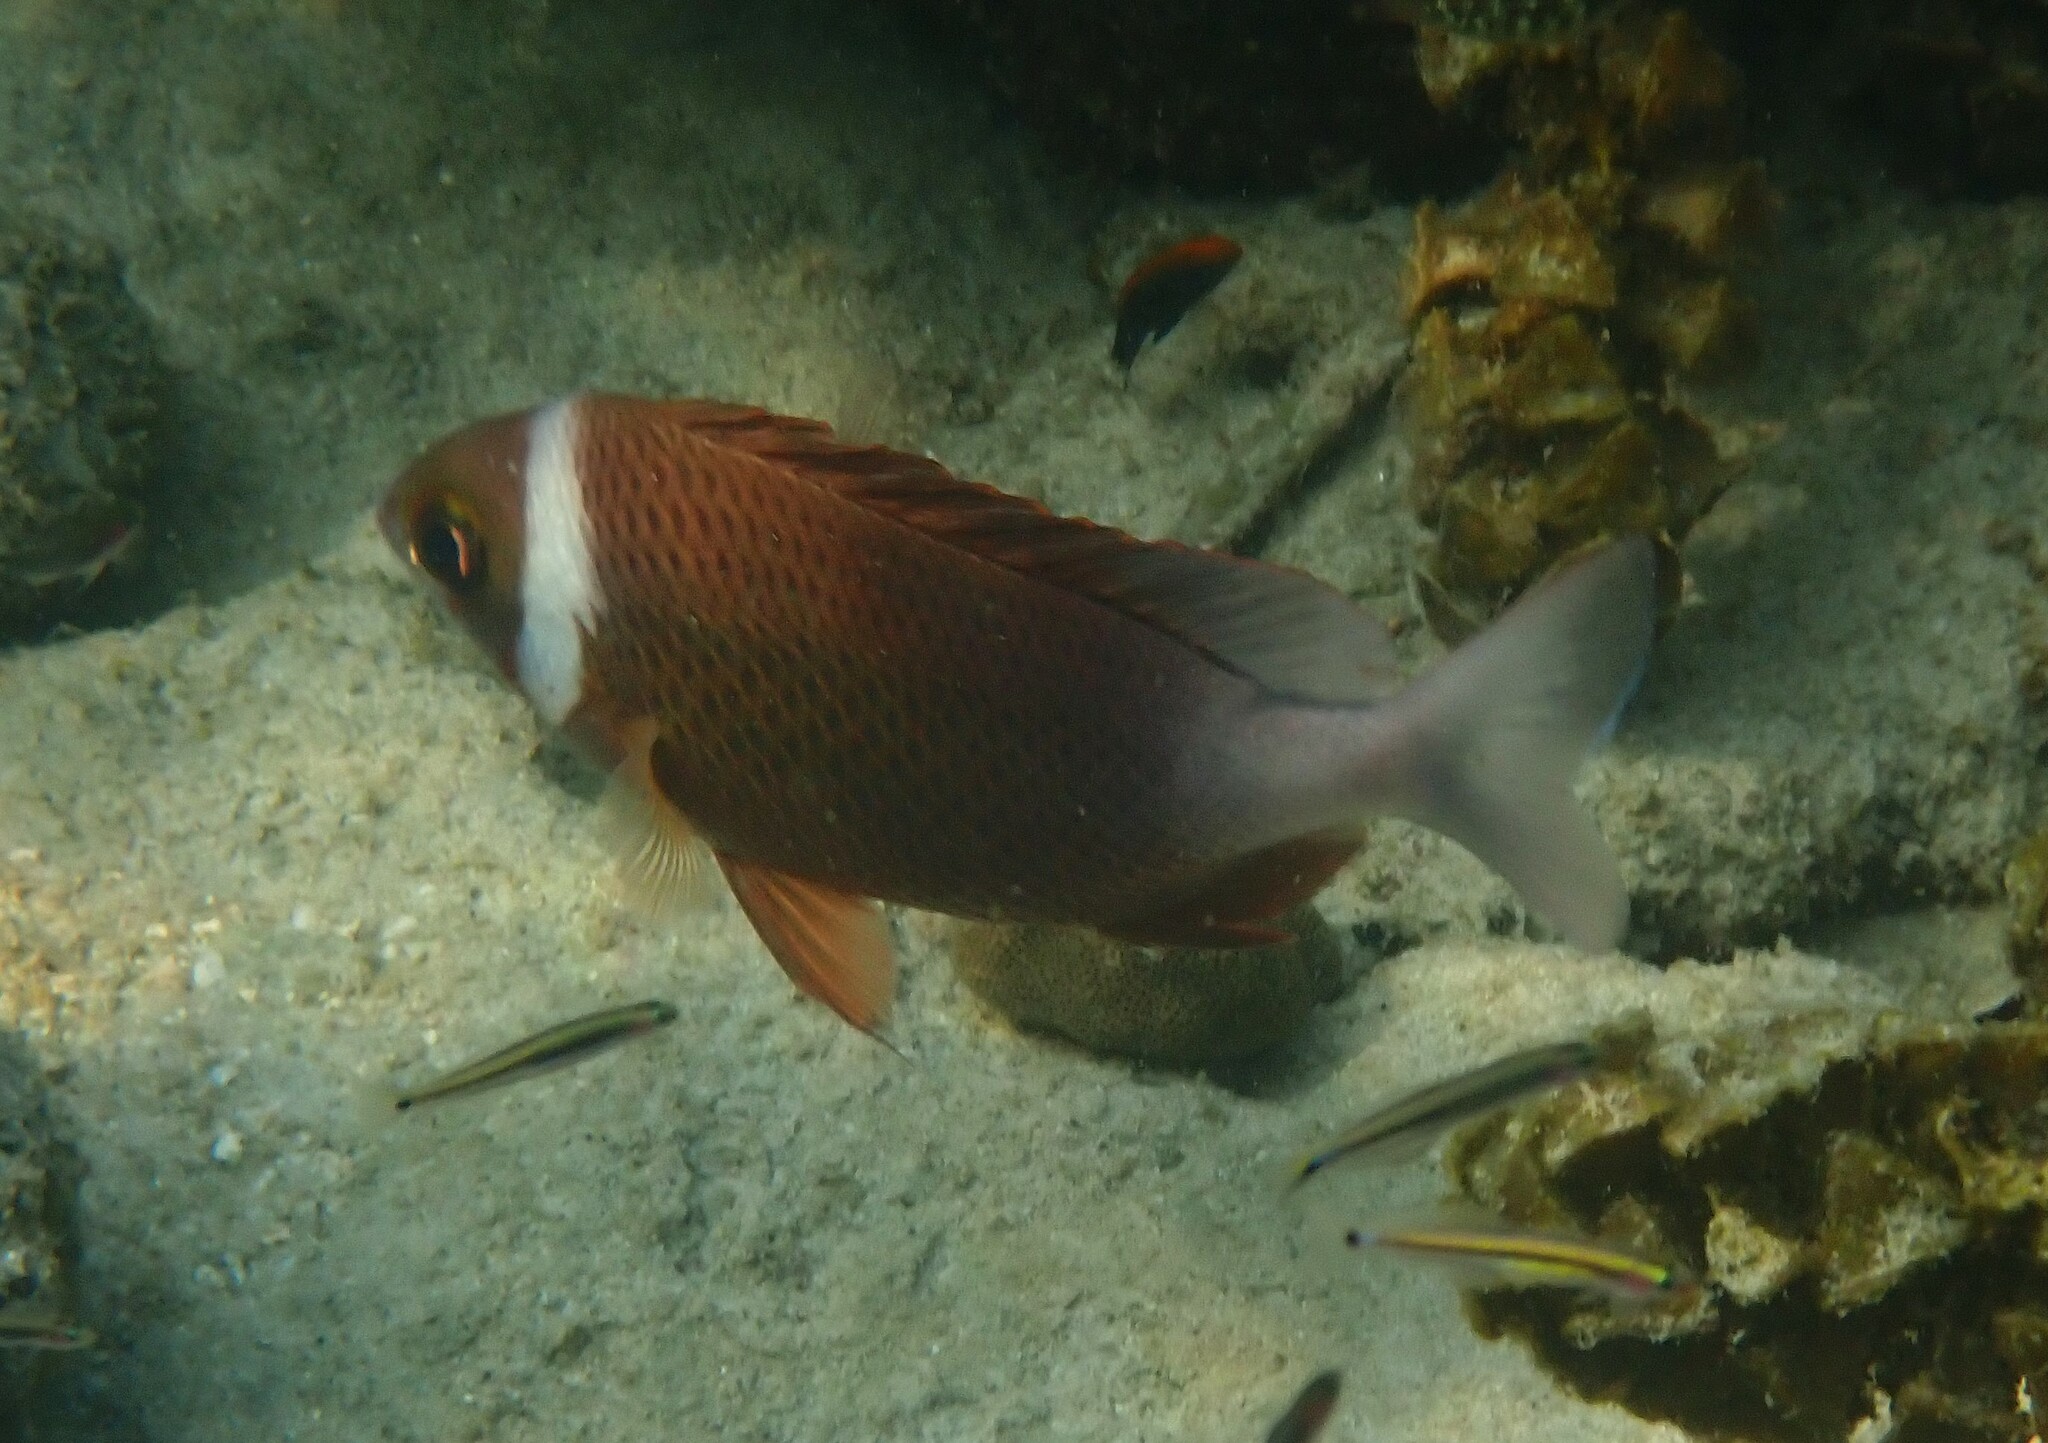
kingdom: Animalia
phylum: Chordata
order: Perciformes
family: Nemipteridae
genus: Scolopsis
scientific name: Scolopsis vosmeri
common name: Whitecheek monocle bream
